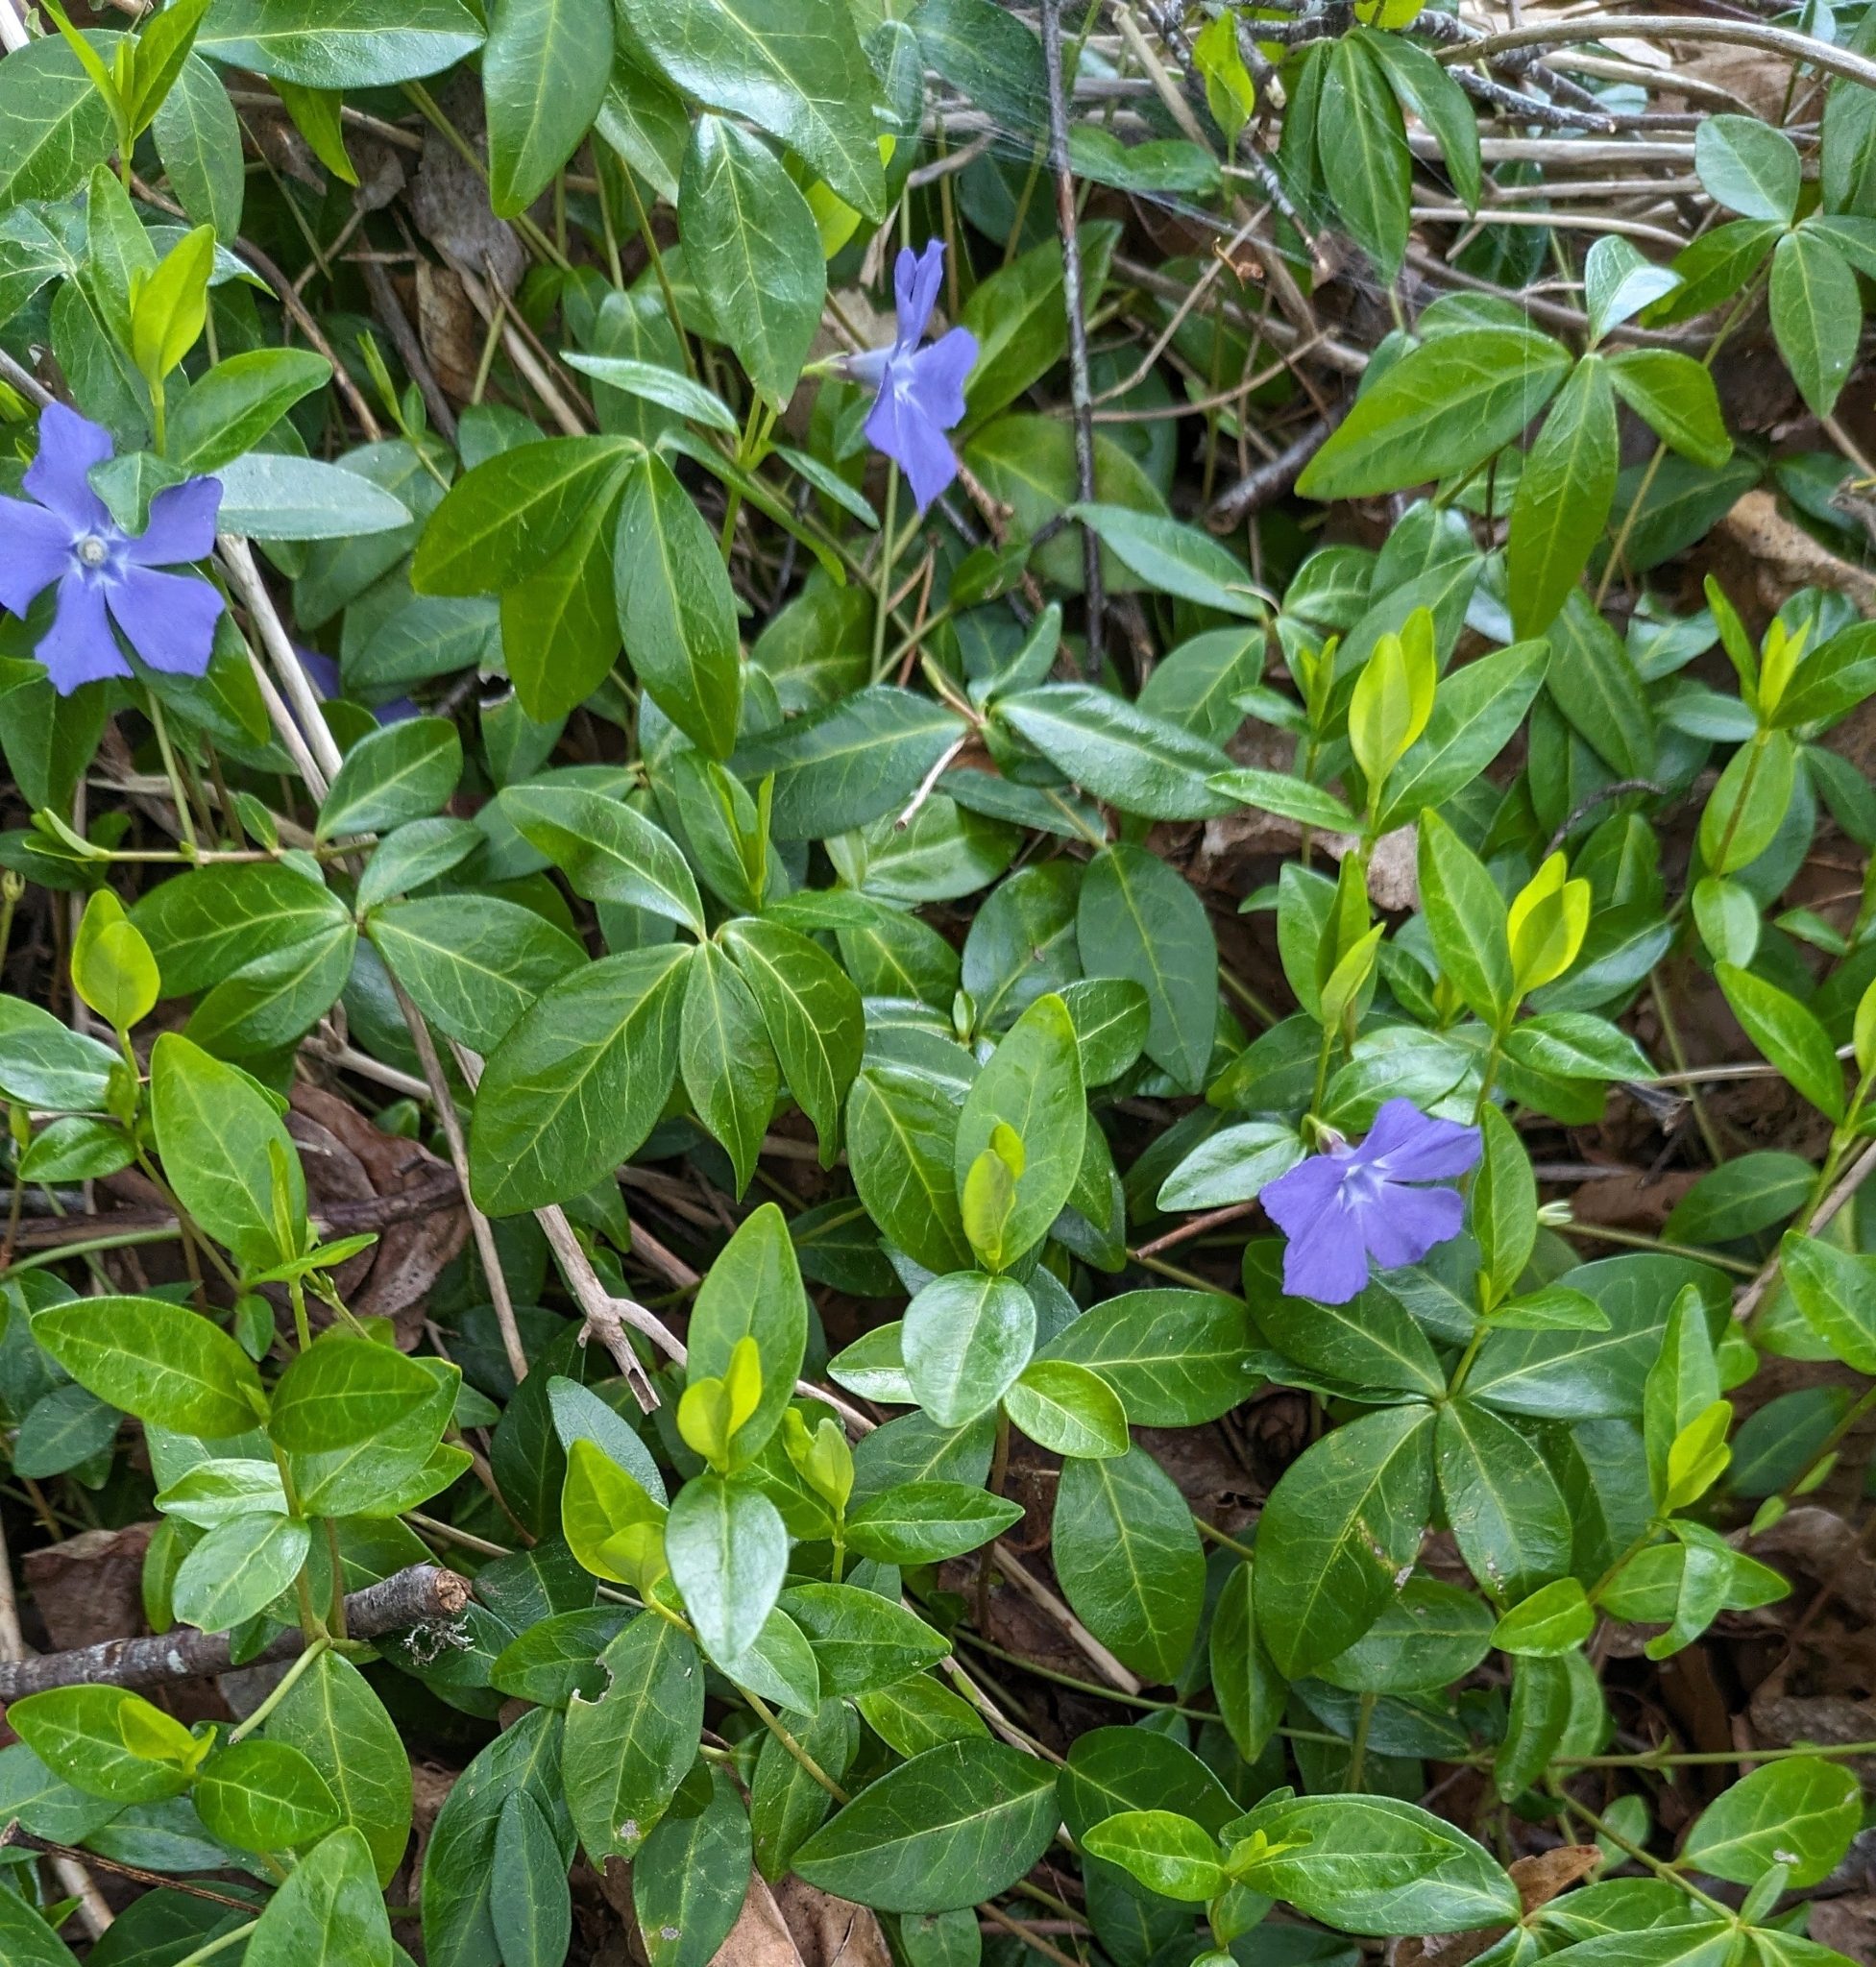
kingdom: Plantae
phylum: Tracheophyta
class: Magnoliopsida
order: Gentianales
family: Apocynaceae
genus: Vinca
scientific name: Vinca minor
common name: Lesser periwinkle
